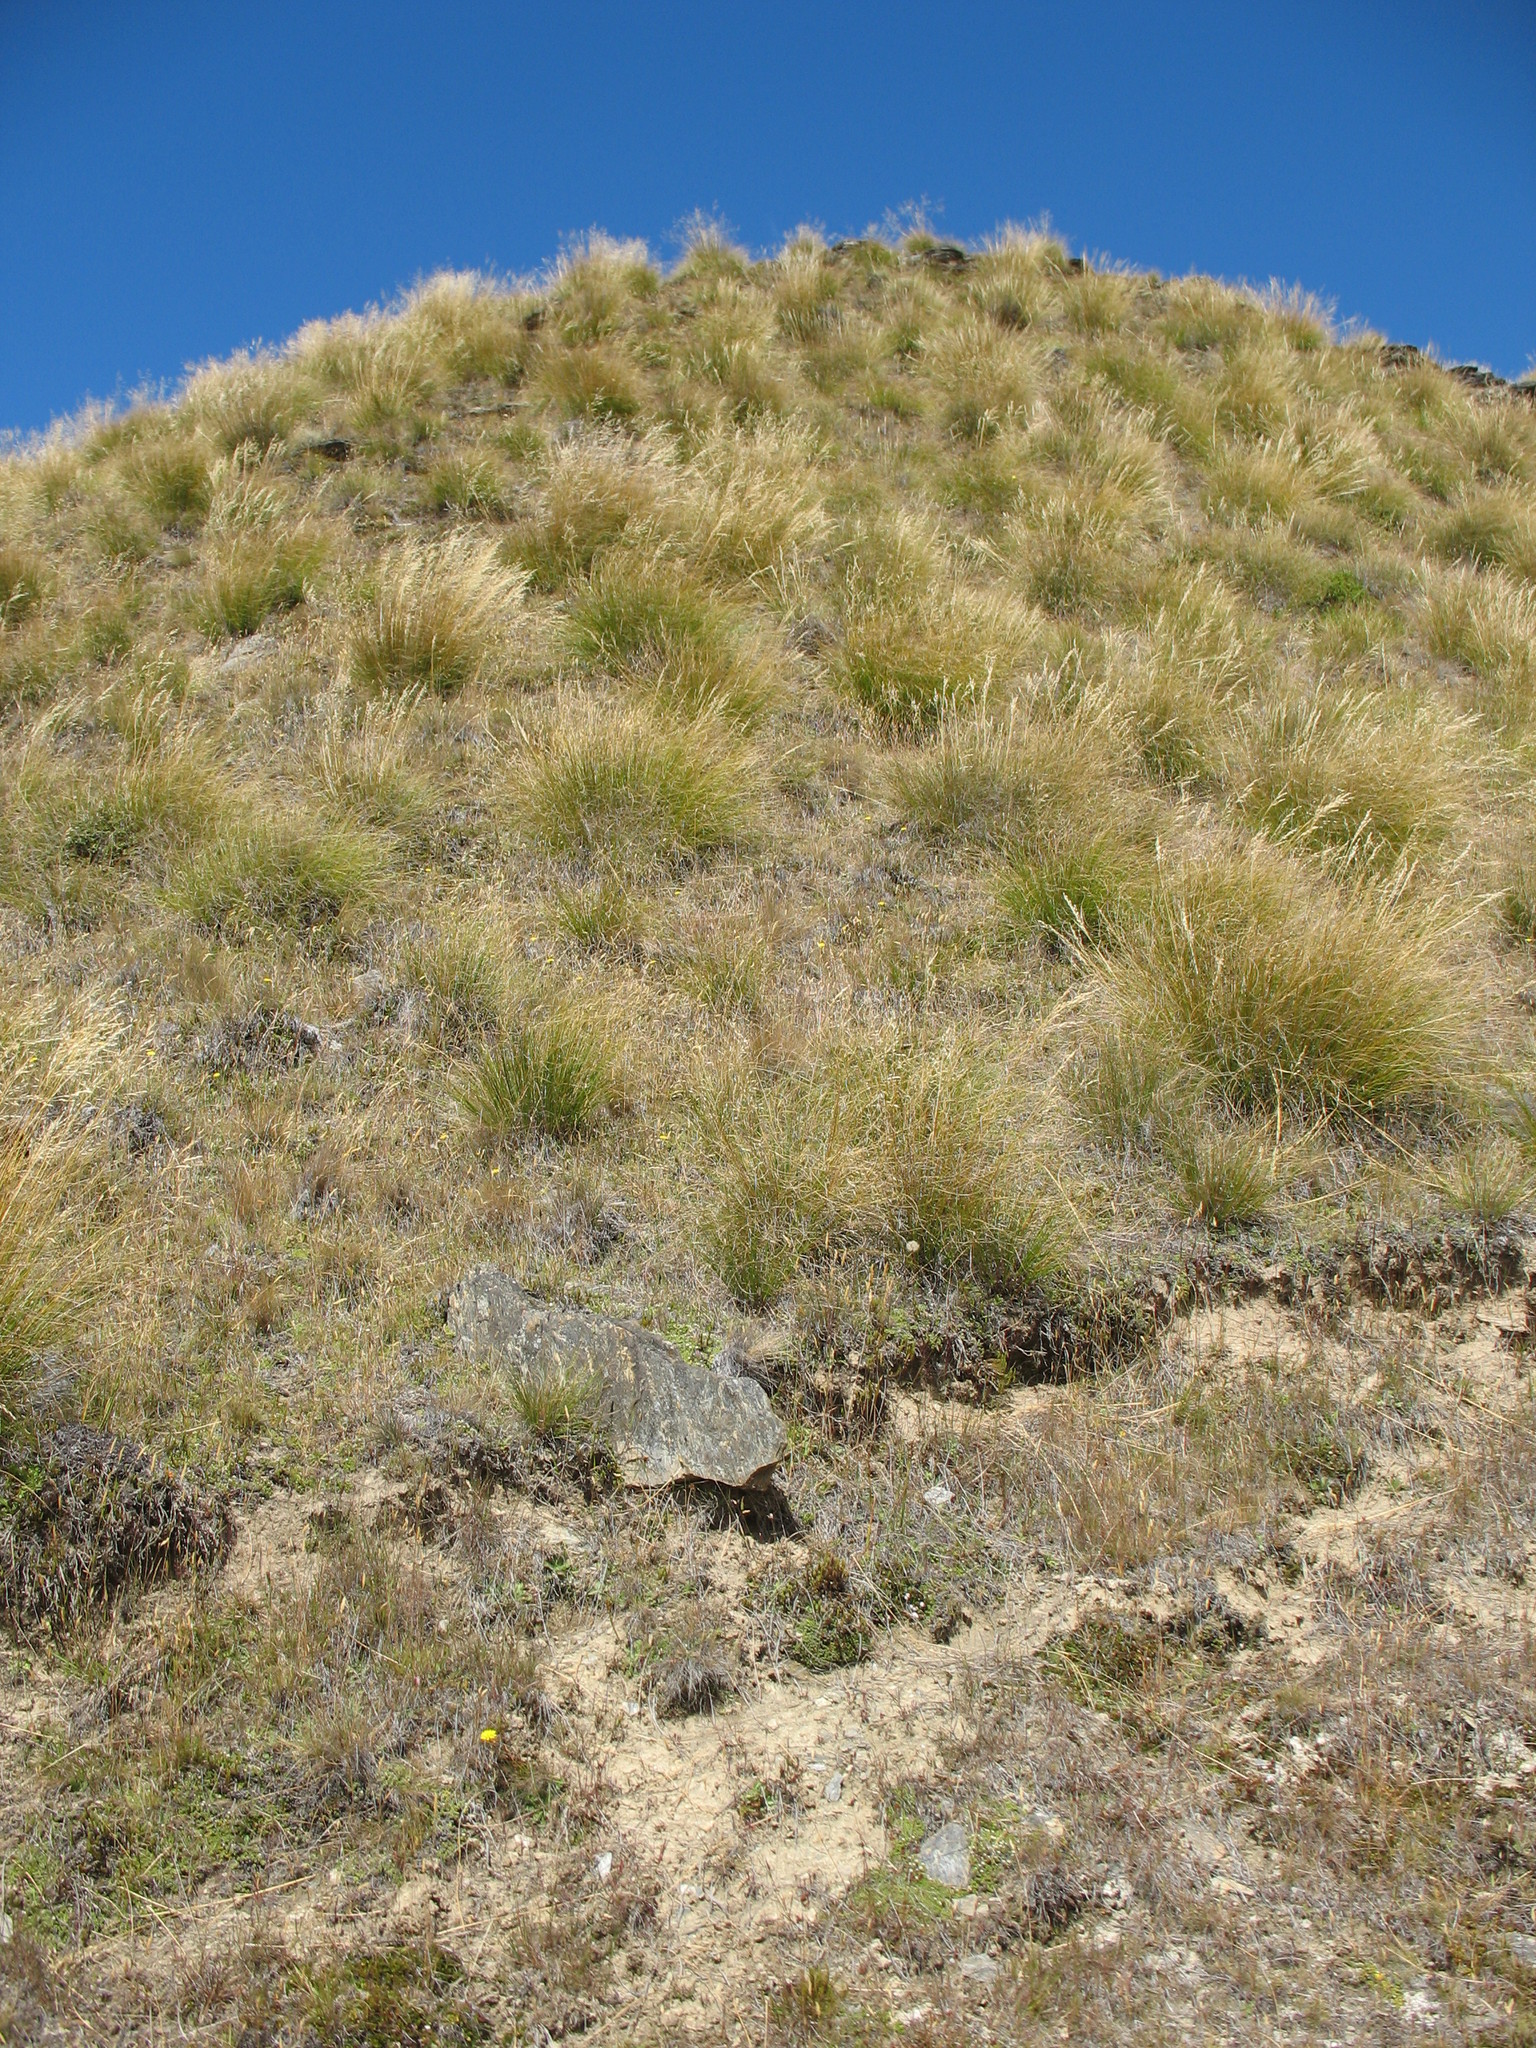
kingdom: Plantae
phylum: Tracheophyta
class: Liliopsida
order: Poales
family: Poaceae
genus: Rytidosperma
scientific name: Rytidosperma pumilum
